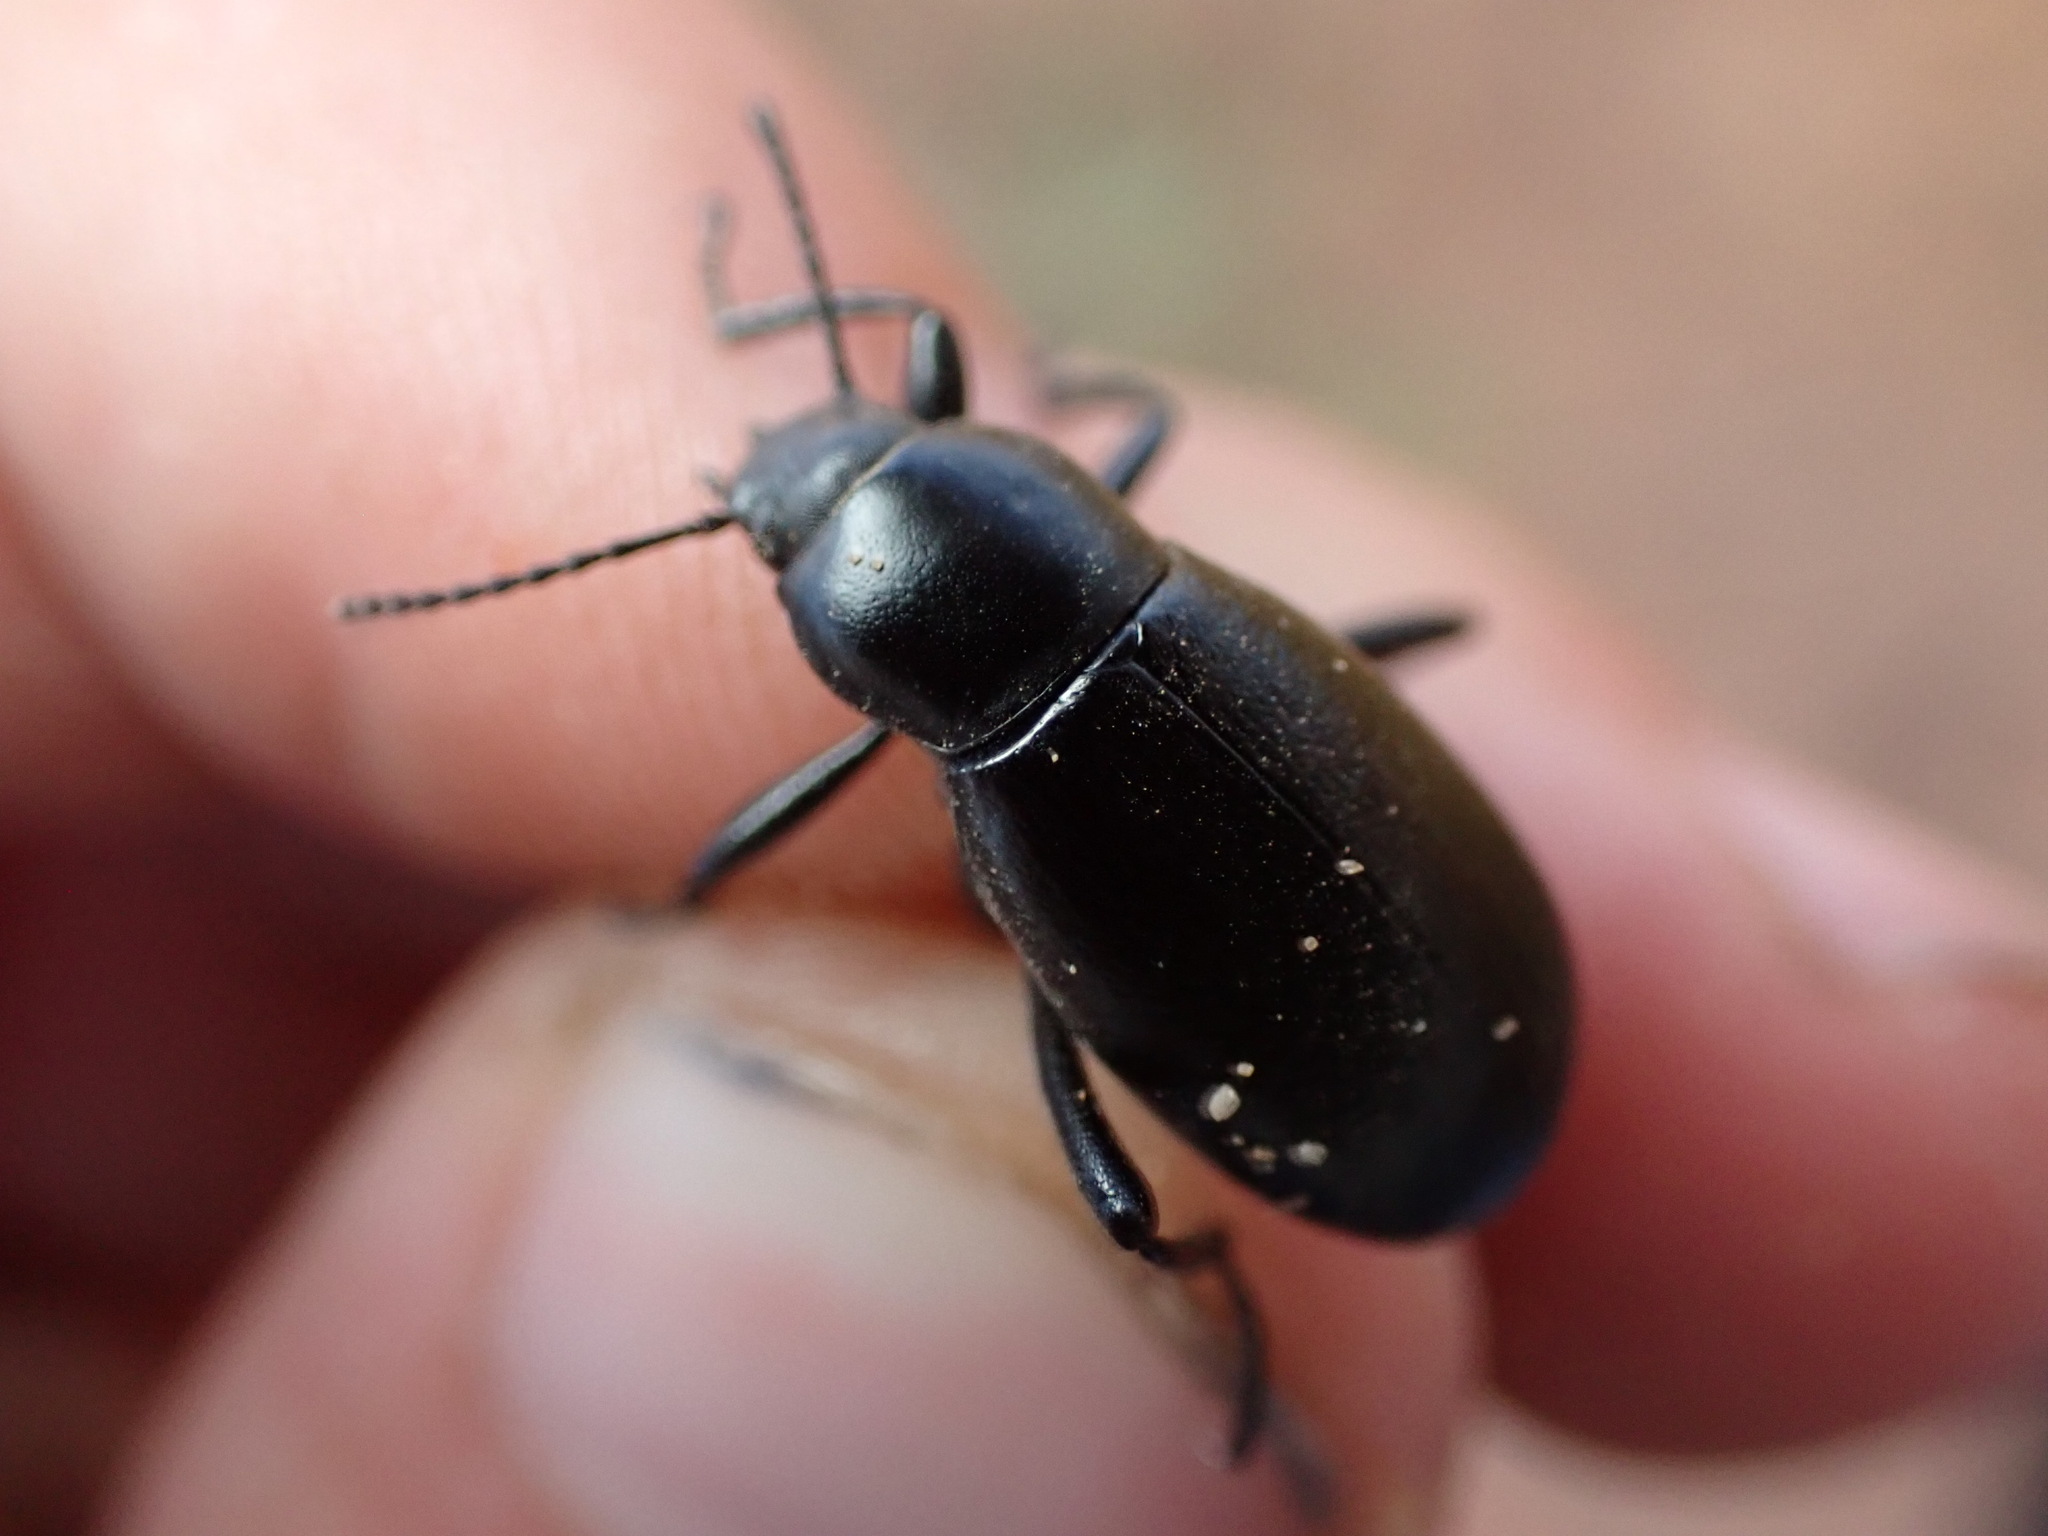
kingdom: Animalia
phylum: Arthropoda
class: Insecta
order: Coleoptera
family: Tenebrionidae
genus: Eleodes
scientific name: Eleodes extricata
